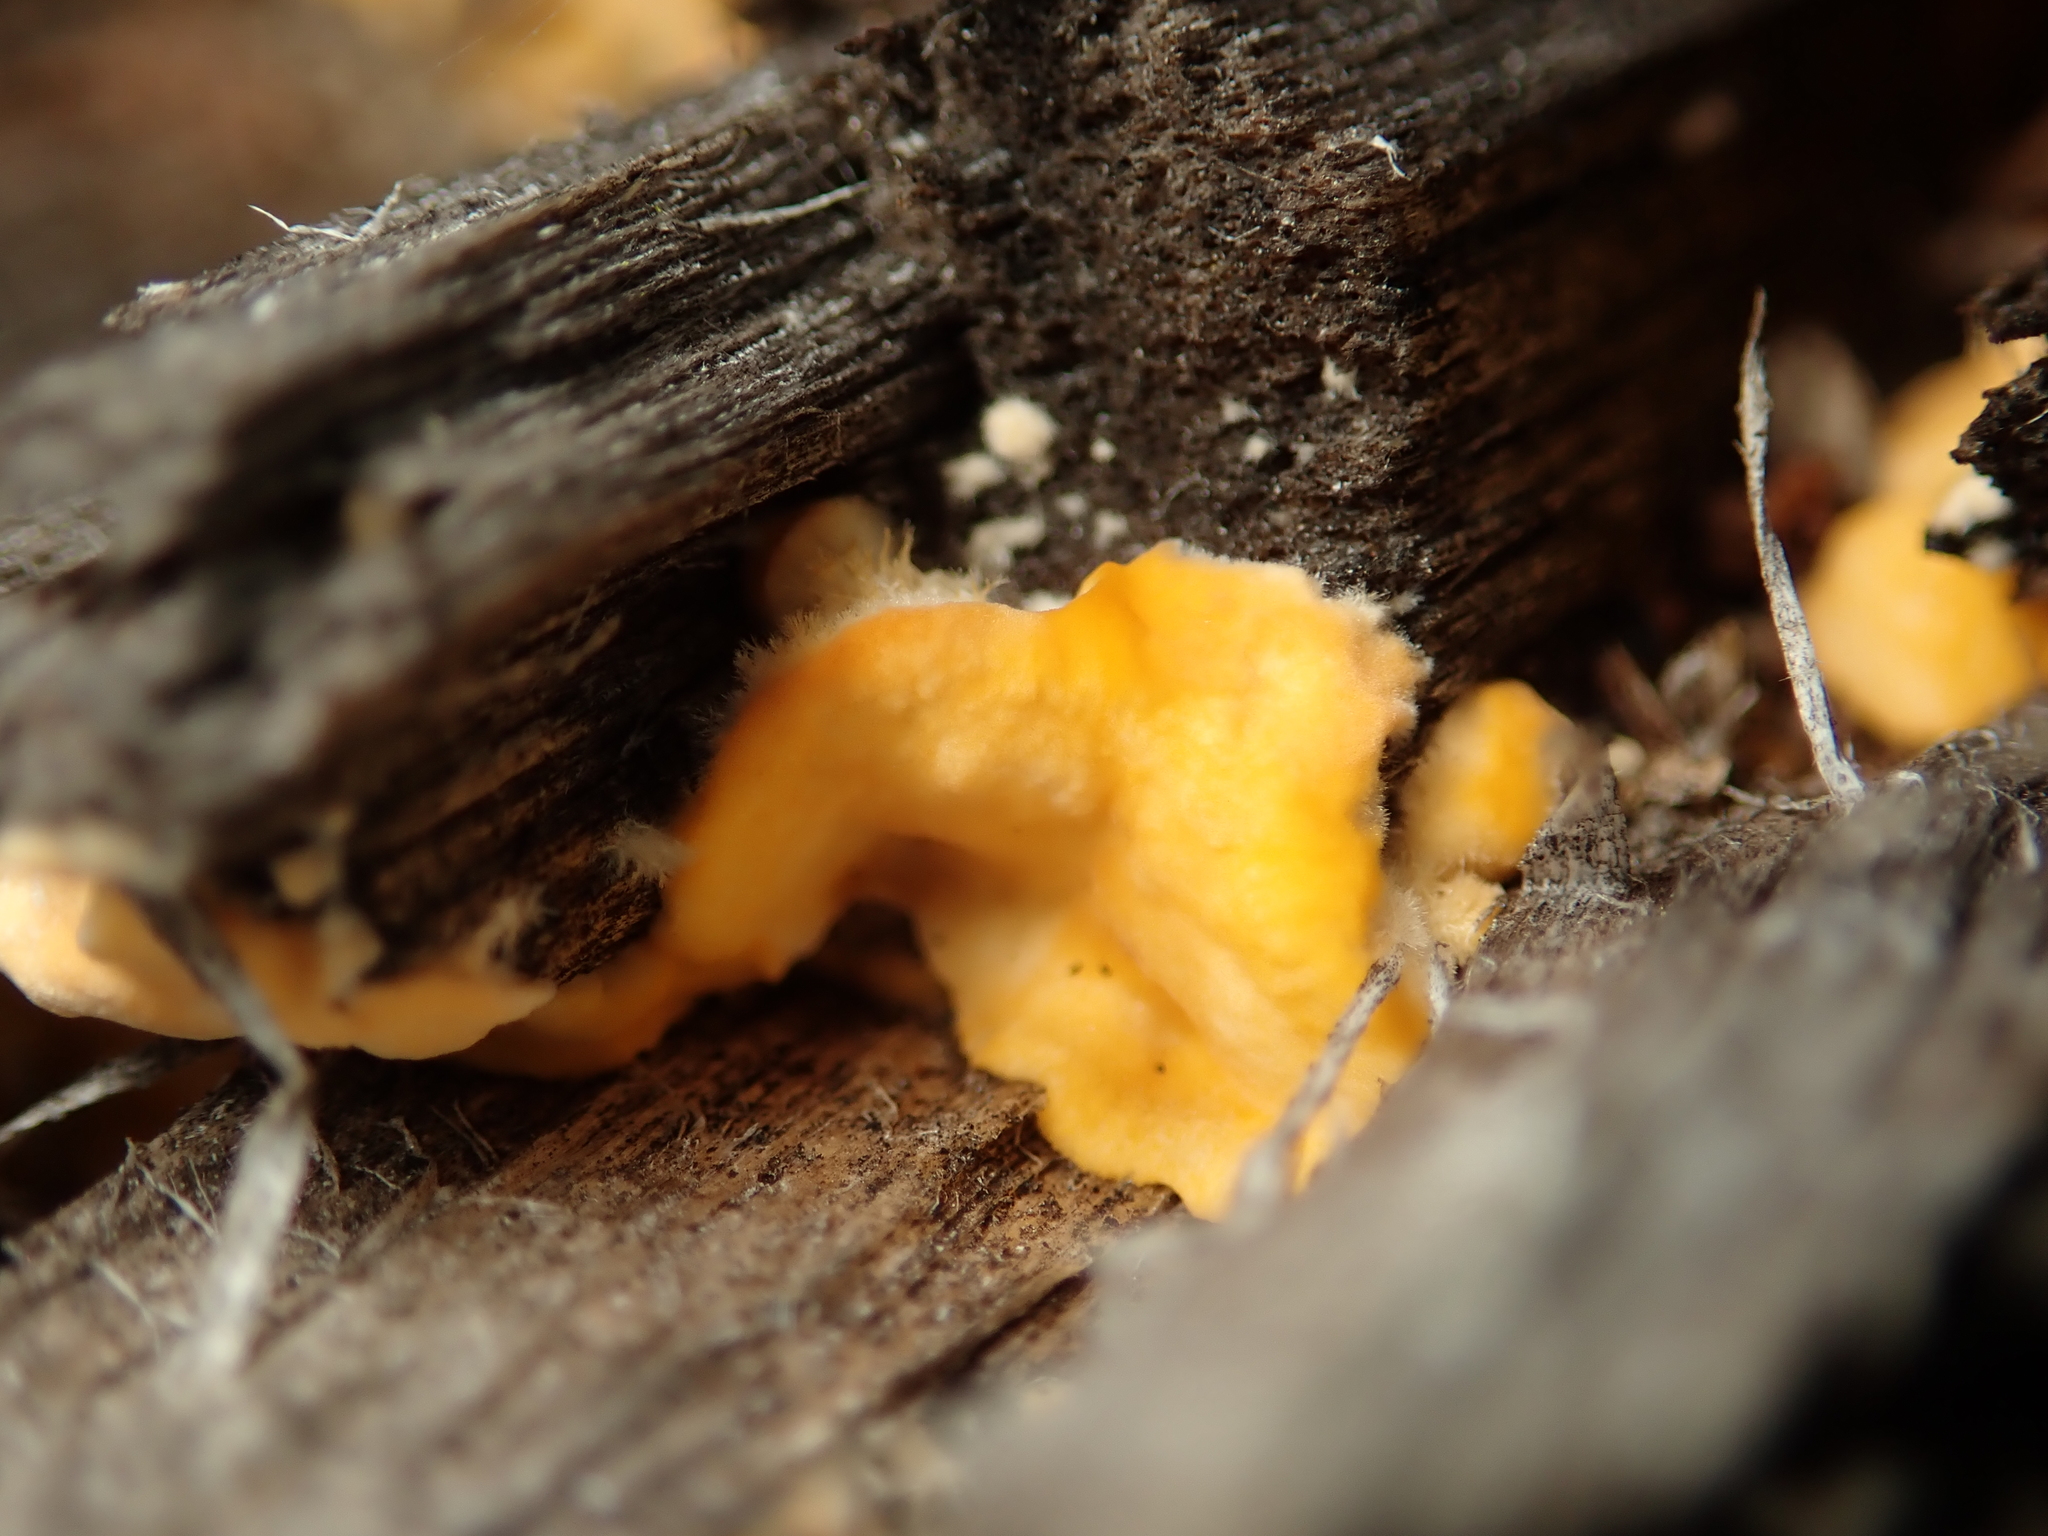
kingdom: Fungi
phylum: Basidiomycota
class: Agaricomycetes
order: Russulales
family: Stereaceae
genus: Stereum
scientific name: Stereum hirsutum
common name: Hairy curtain crust
